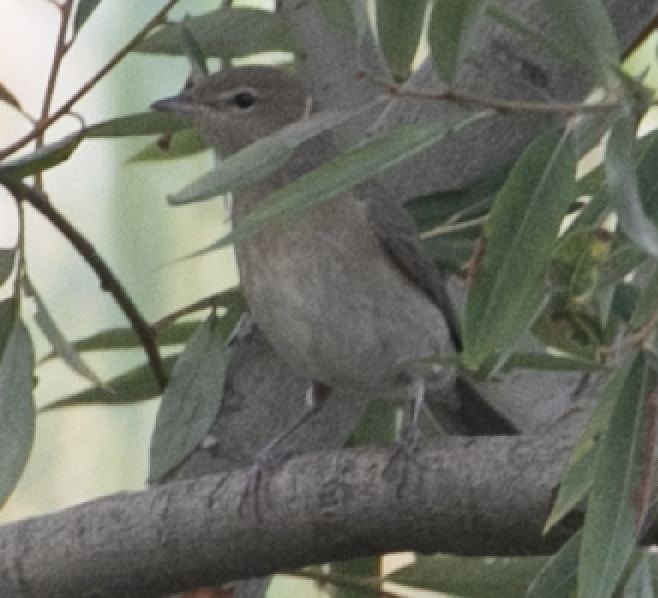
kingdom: Animalia
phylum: Chordata
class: Aves
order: Passeriformes
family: Sylviidae
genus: Sylvia
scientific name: Sylvia borin
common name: Garden warbler
